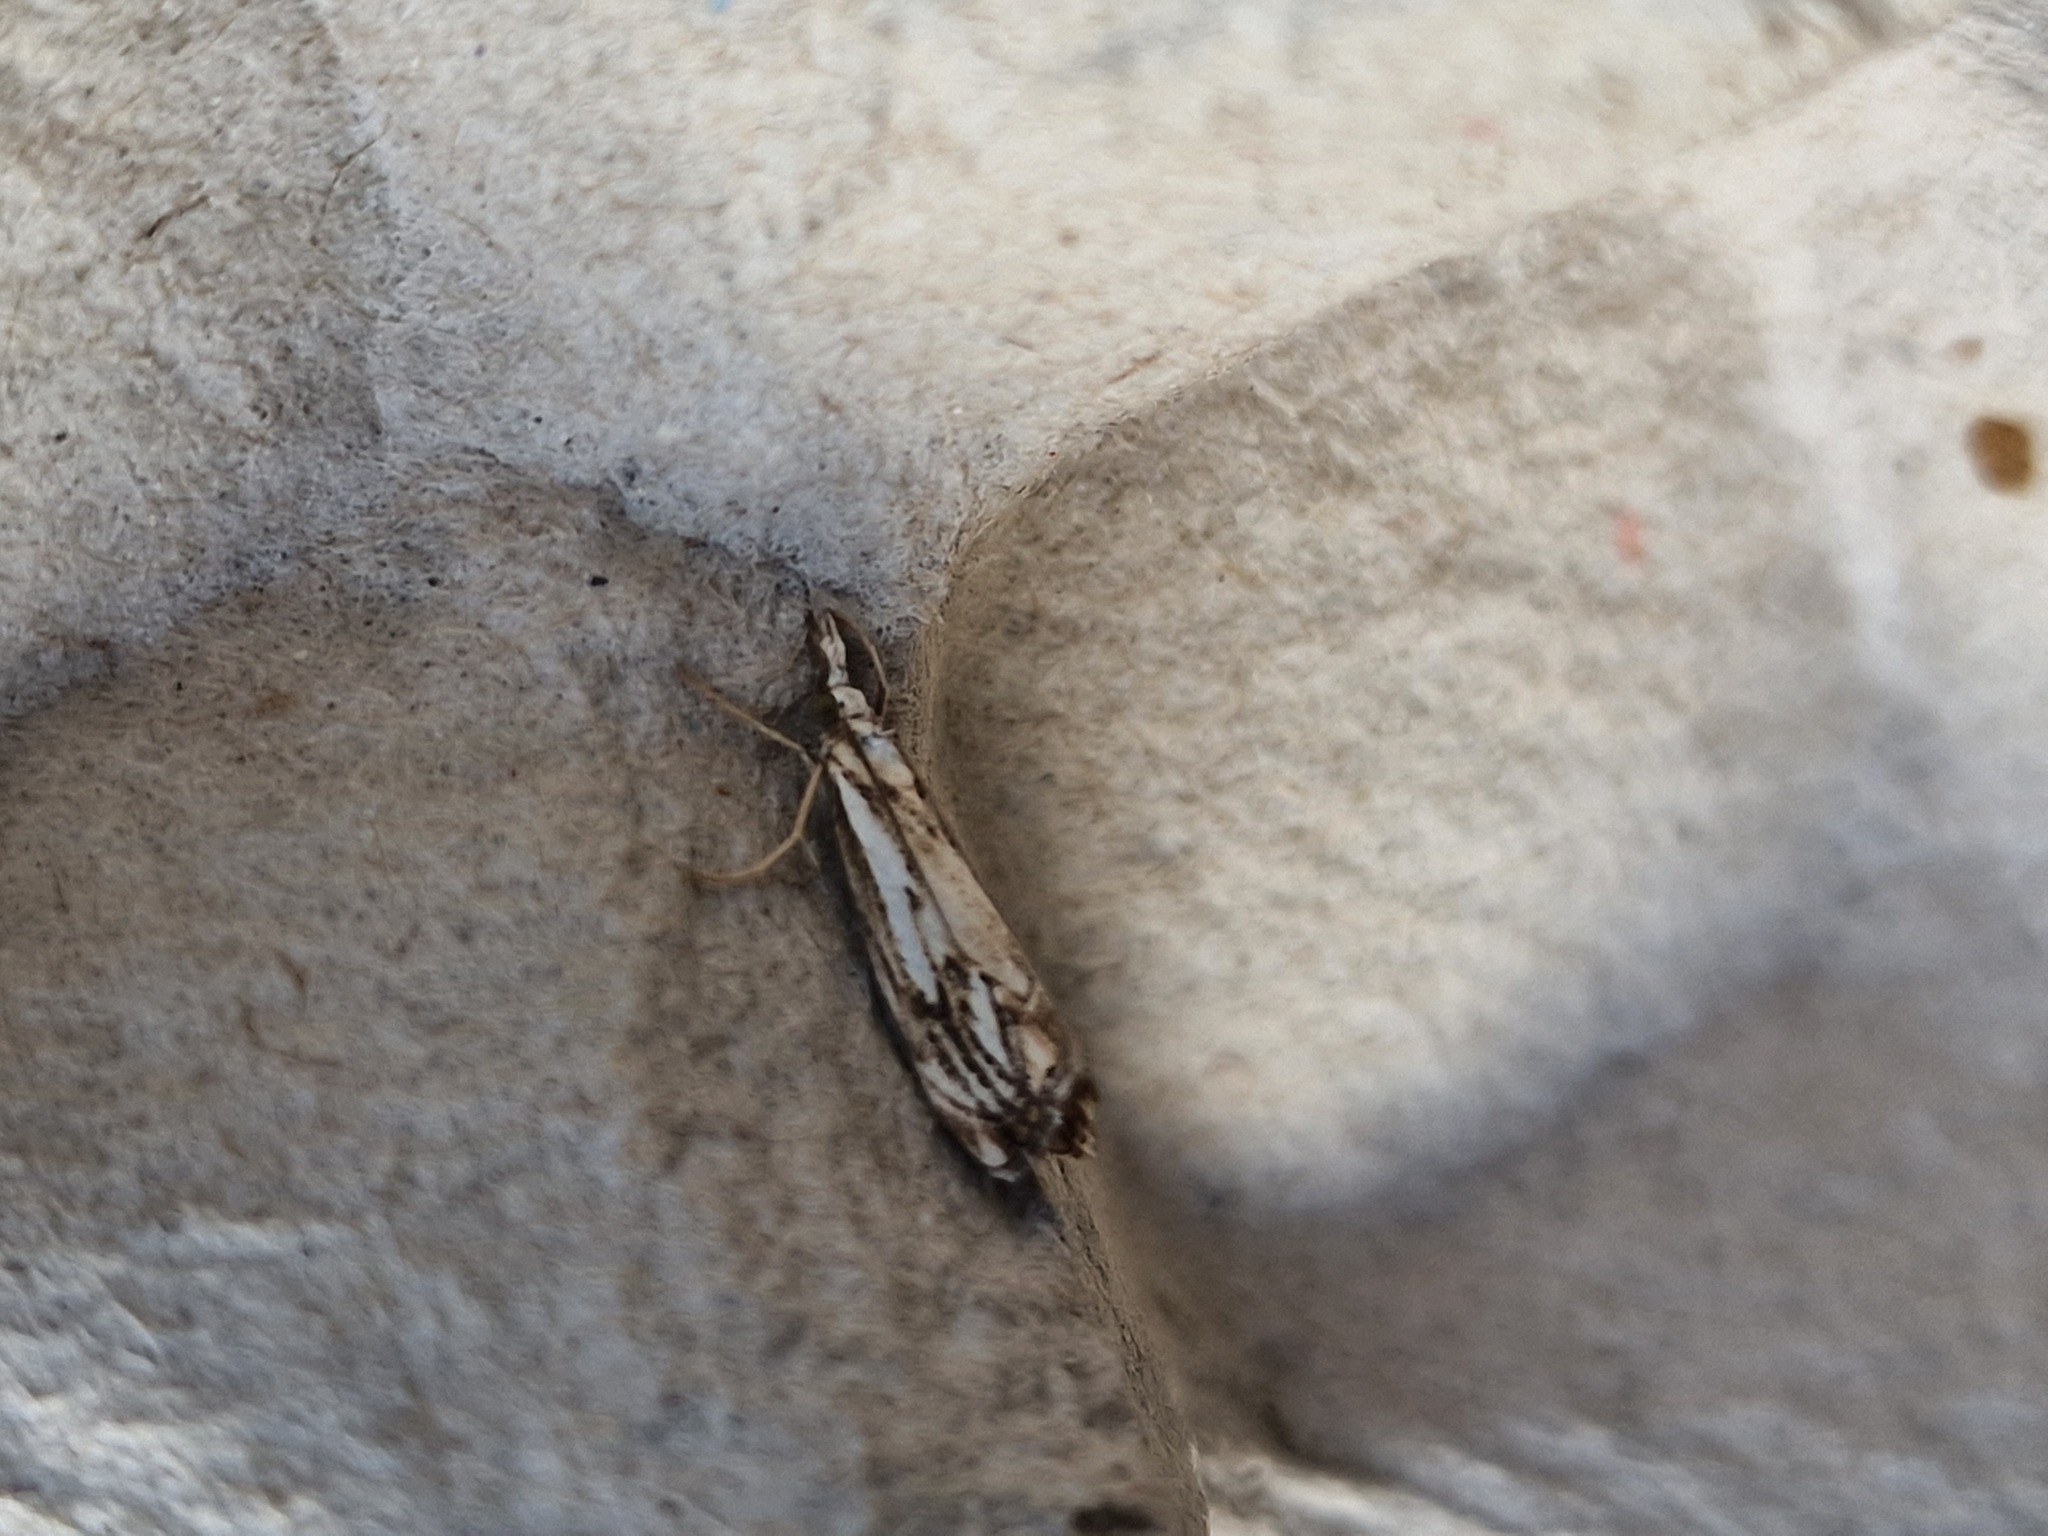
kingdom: Animalia
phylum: Arthropoda
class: Insecta
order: Lepidoptera
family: Crambidae
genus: Catoptria
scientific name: Catoptria falsella
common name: Chequered grass-veneer
